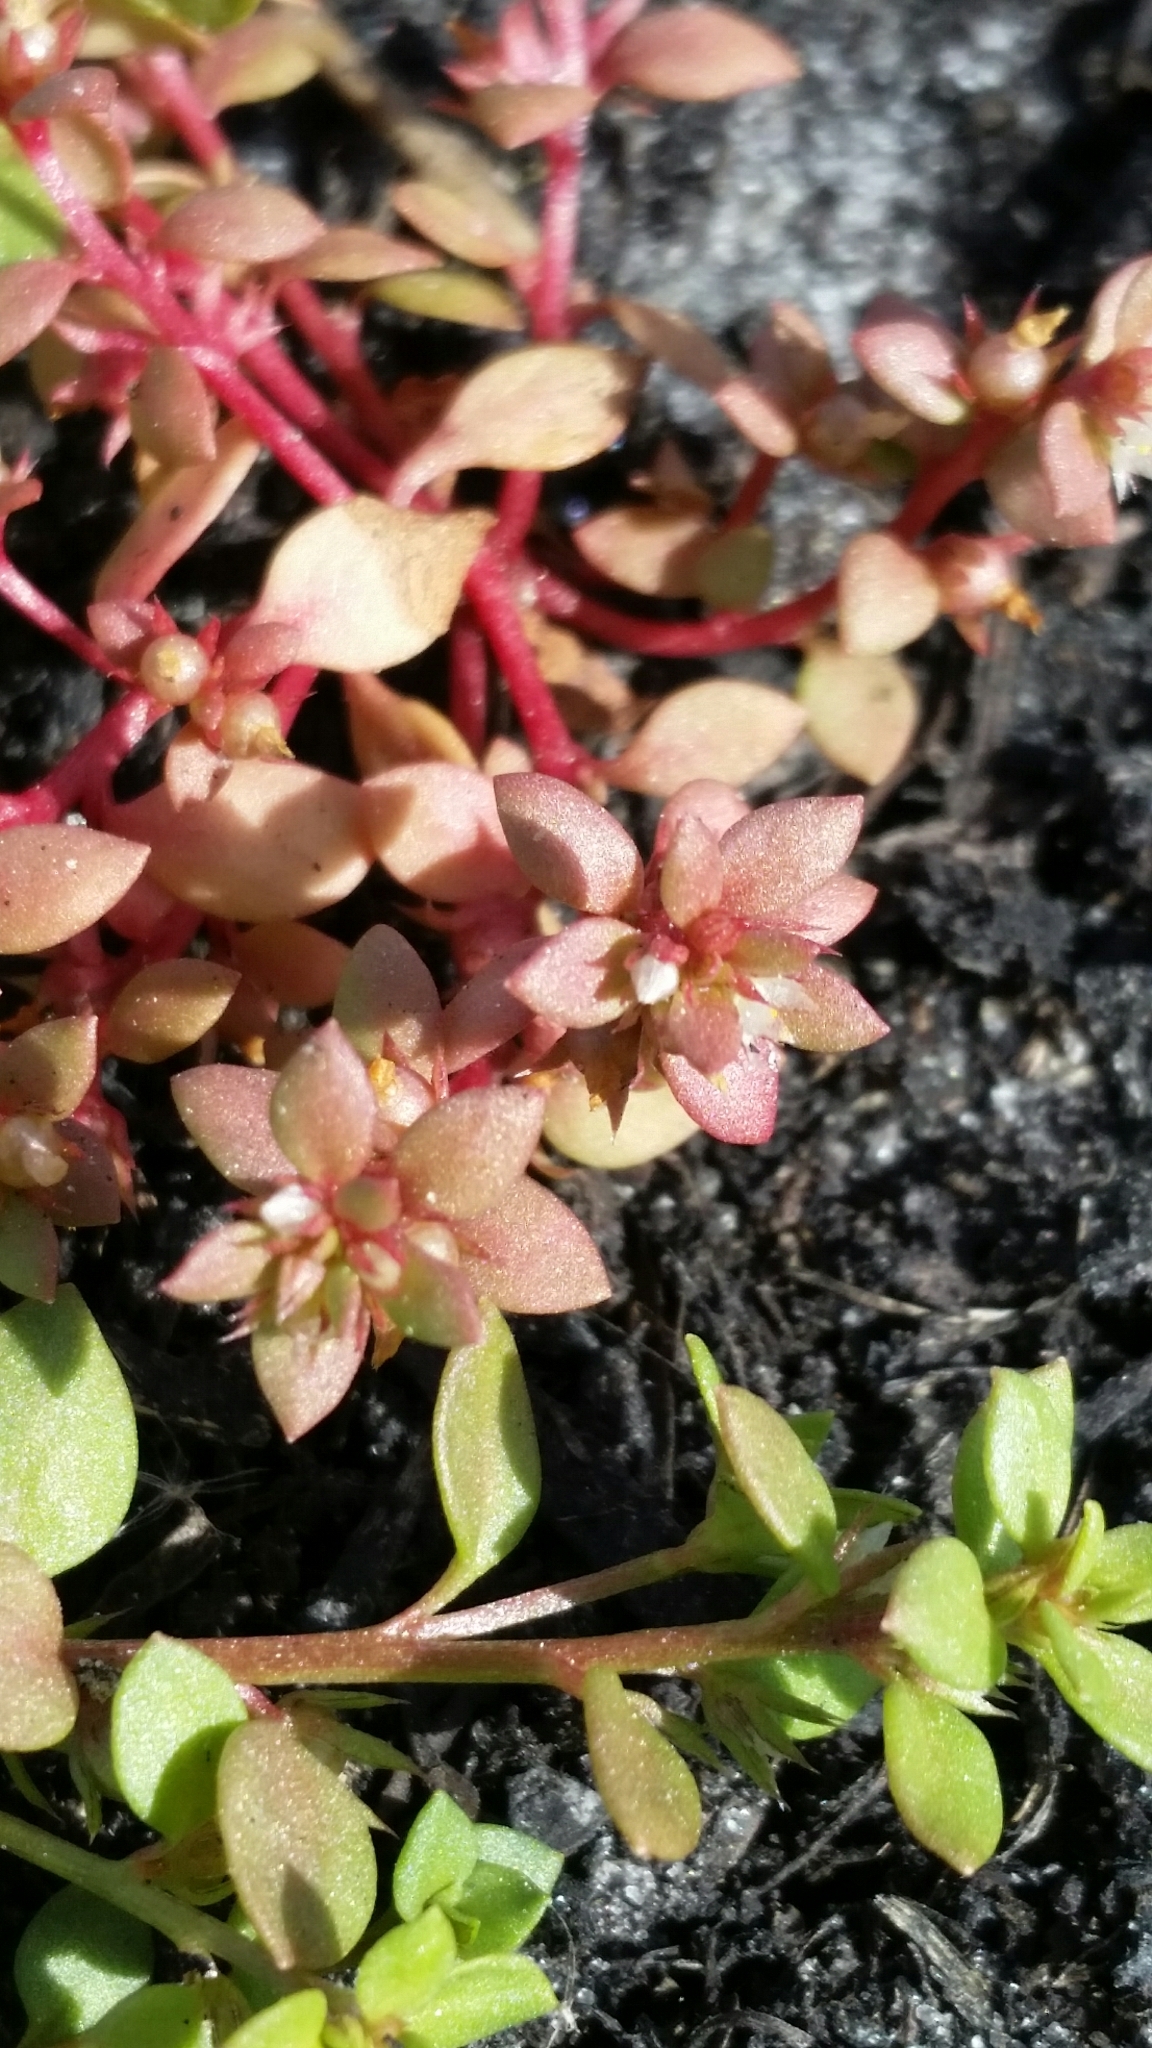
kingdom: Plantae
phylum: Tracheophyta
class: Magnoliopsida
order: Ericales
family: Primulaceae
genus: Lysimachia
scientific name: Lysimachia minima
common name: Chaffweed
